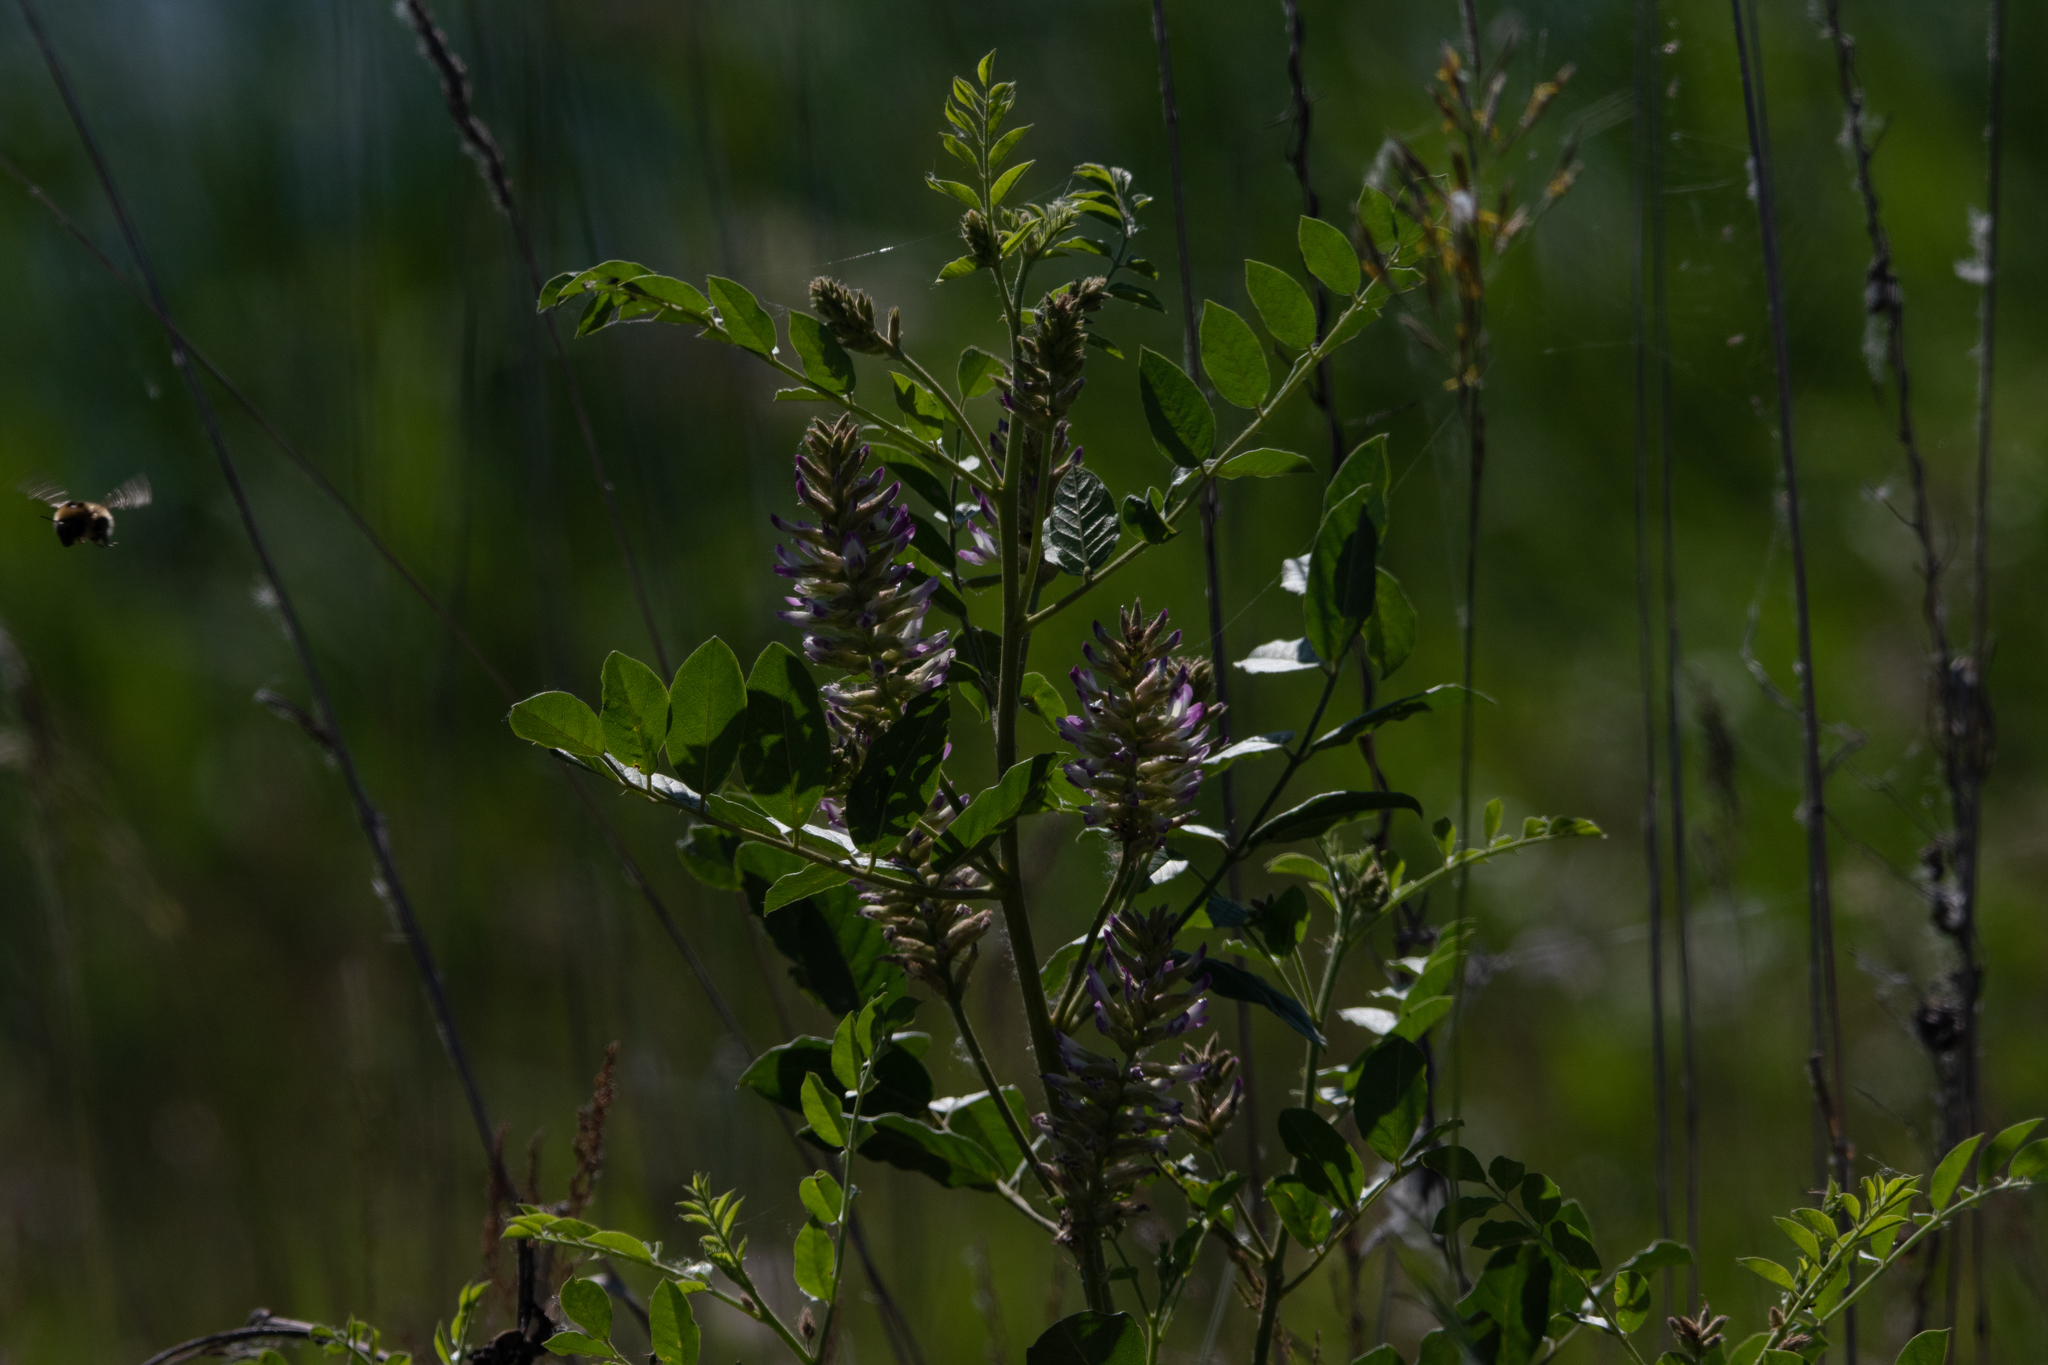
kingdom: Plantae
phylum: Tracheophyta
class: Magnoliopsida
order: Fabales
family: Fabaceae
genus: Glycyrrhiza
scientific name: Glycyrrhiza uralensis
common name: Chinese licorice
